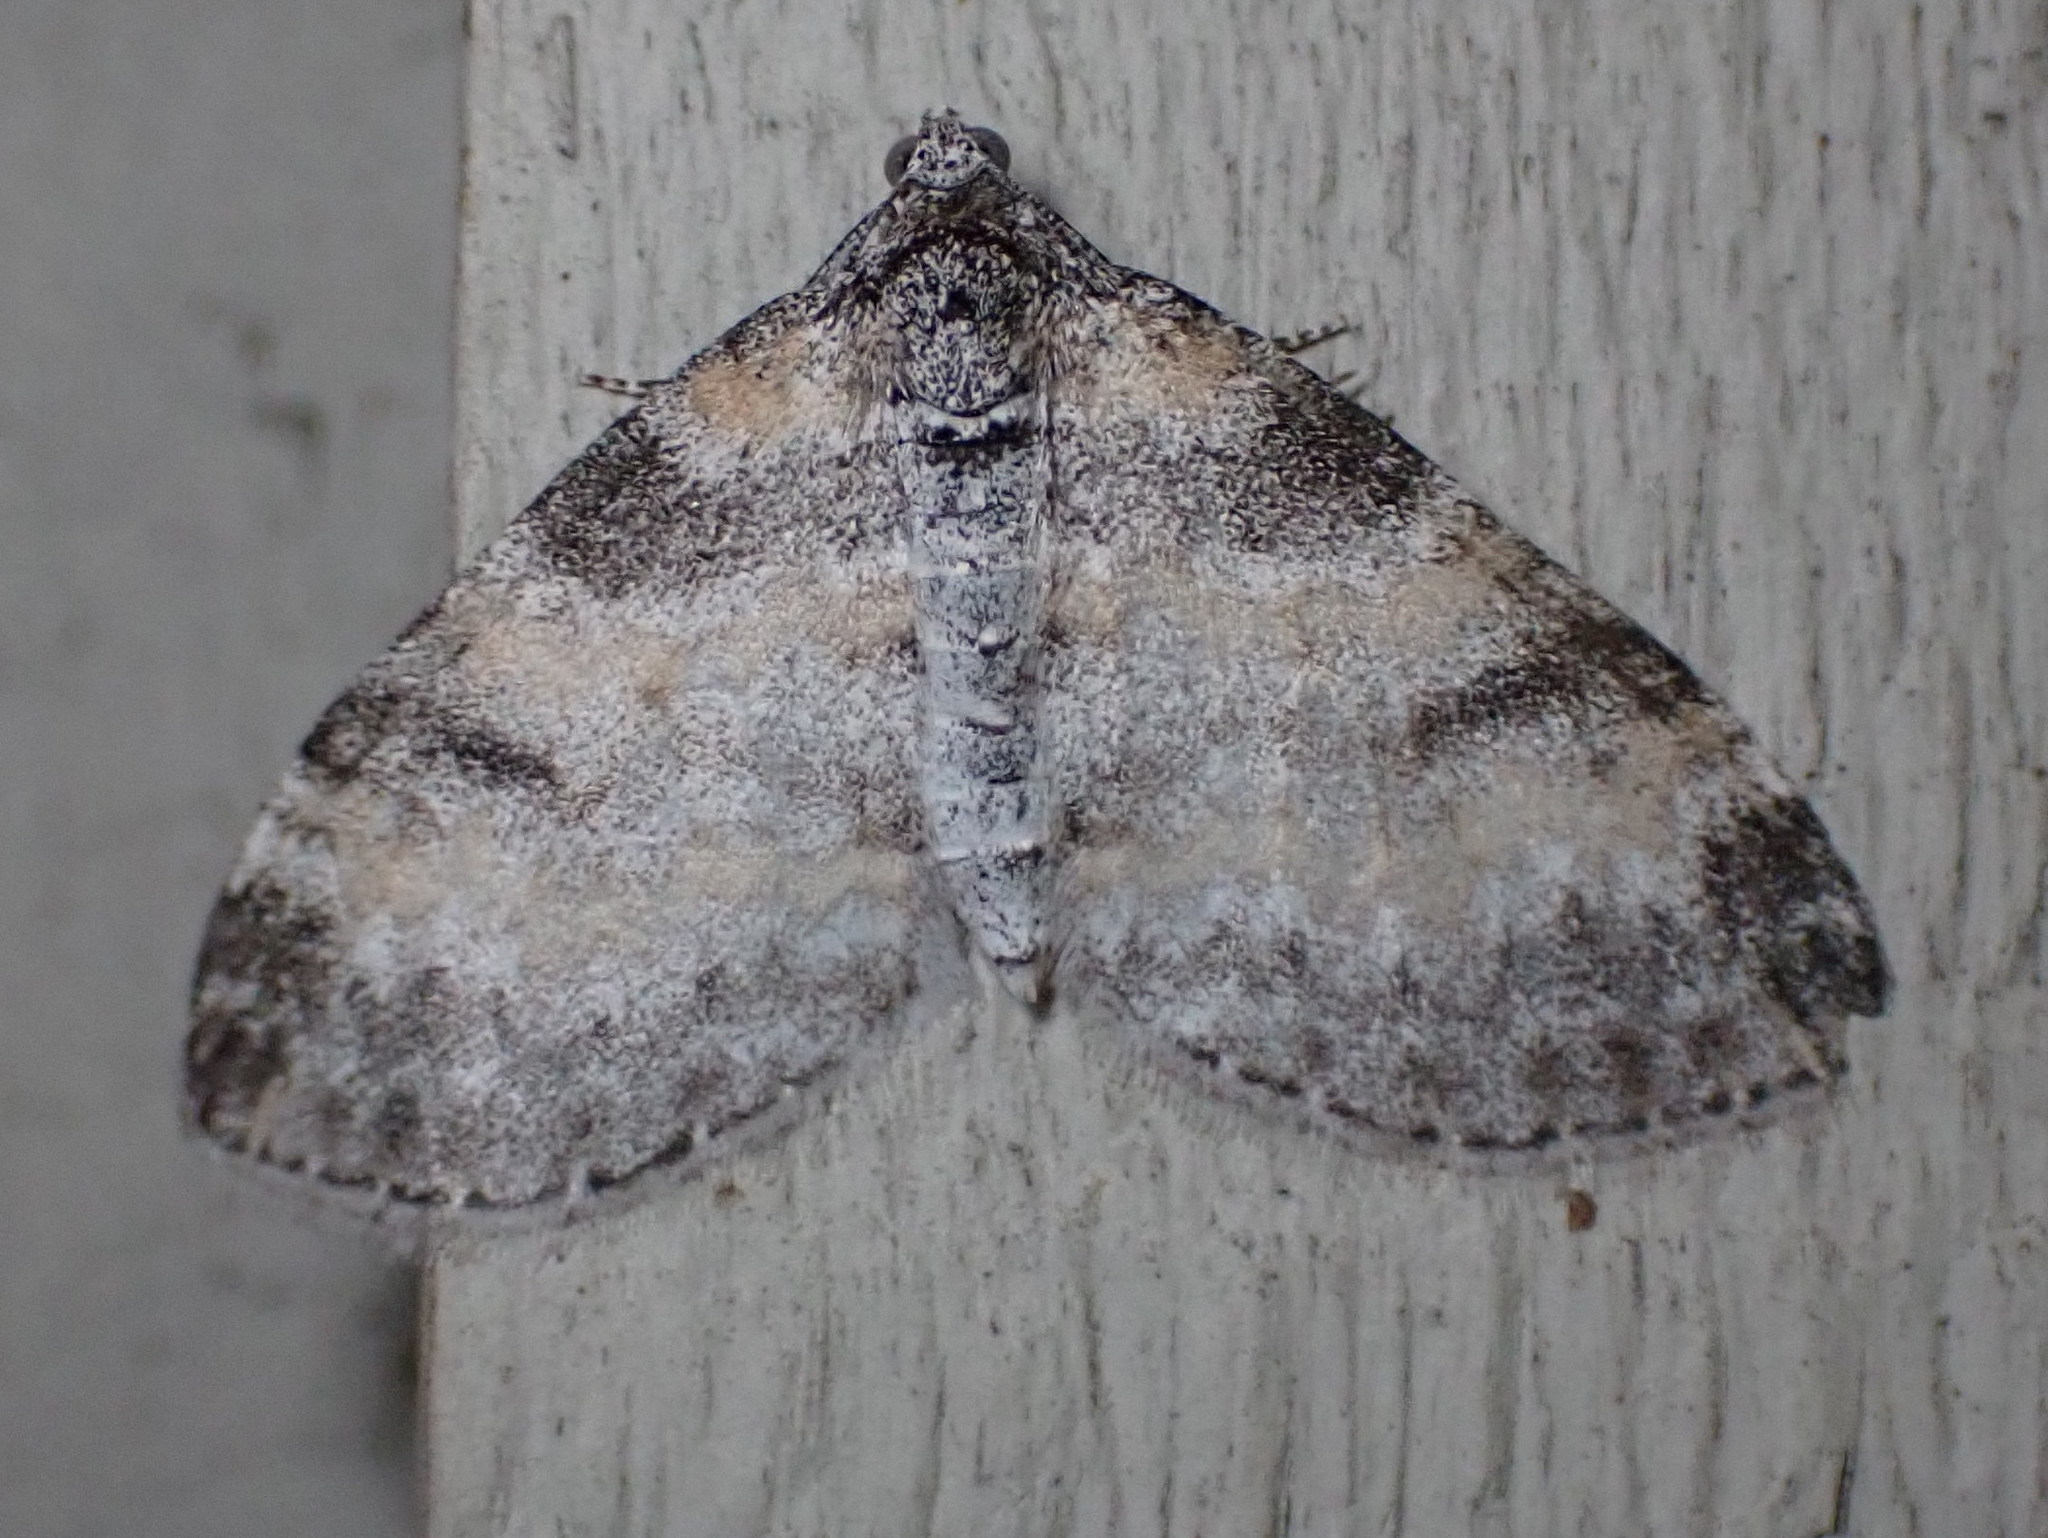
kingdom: Animalia
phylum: Arthropoda
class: Insecta
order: Lepidoptera
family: Geometridae
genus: Lobophora
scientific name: Lobophora nivigerata
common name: Powdered bigwing
